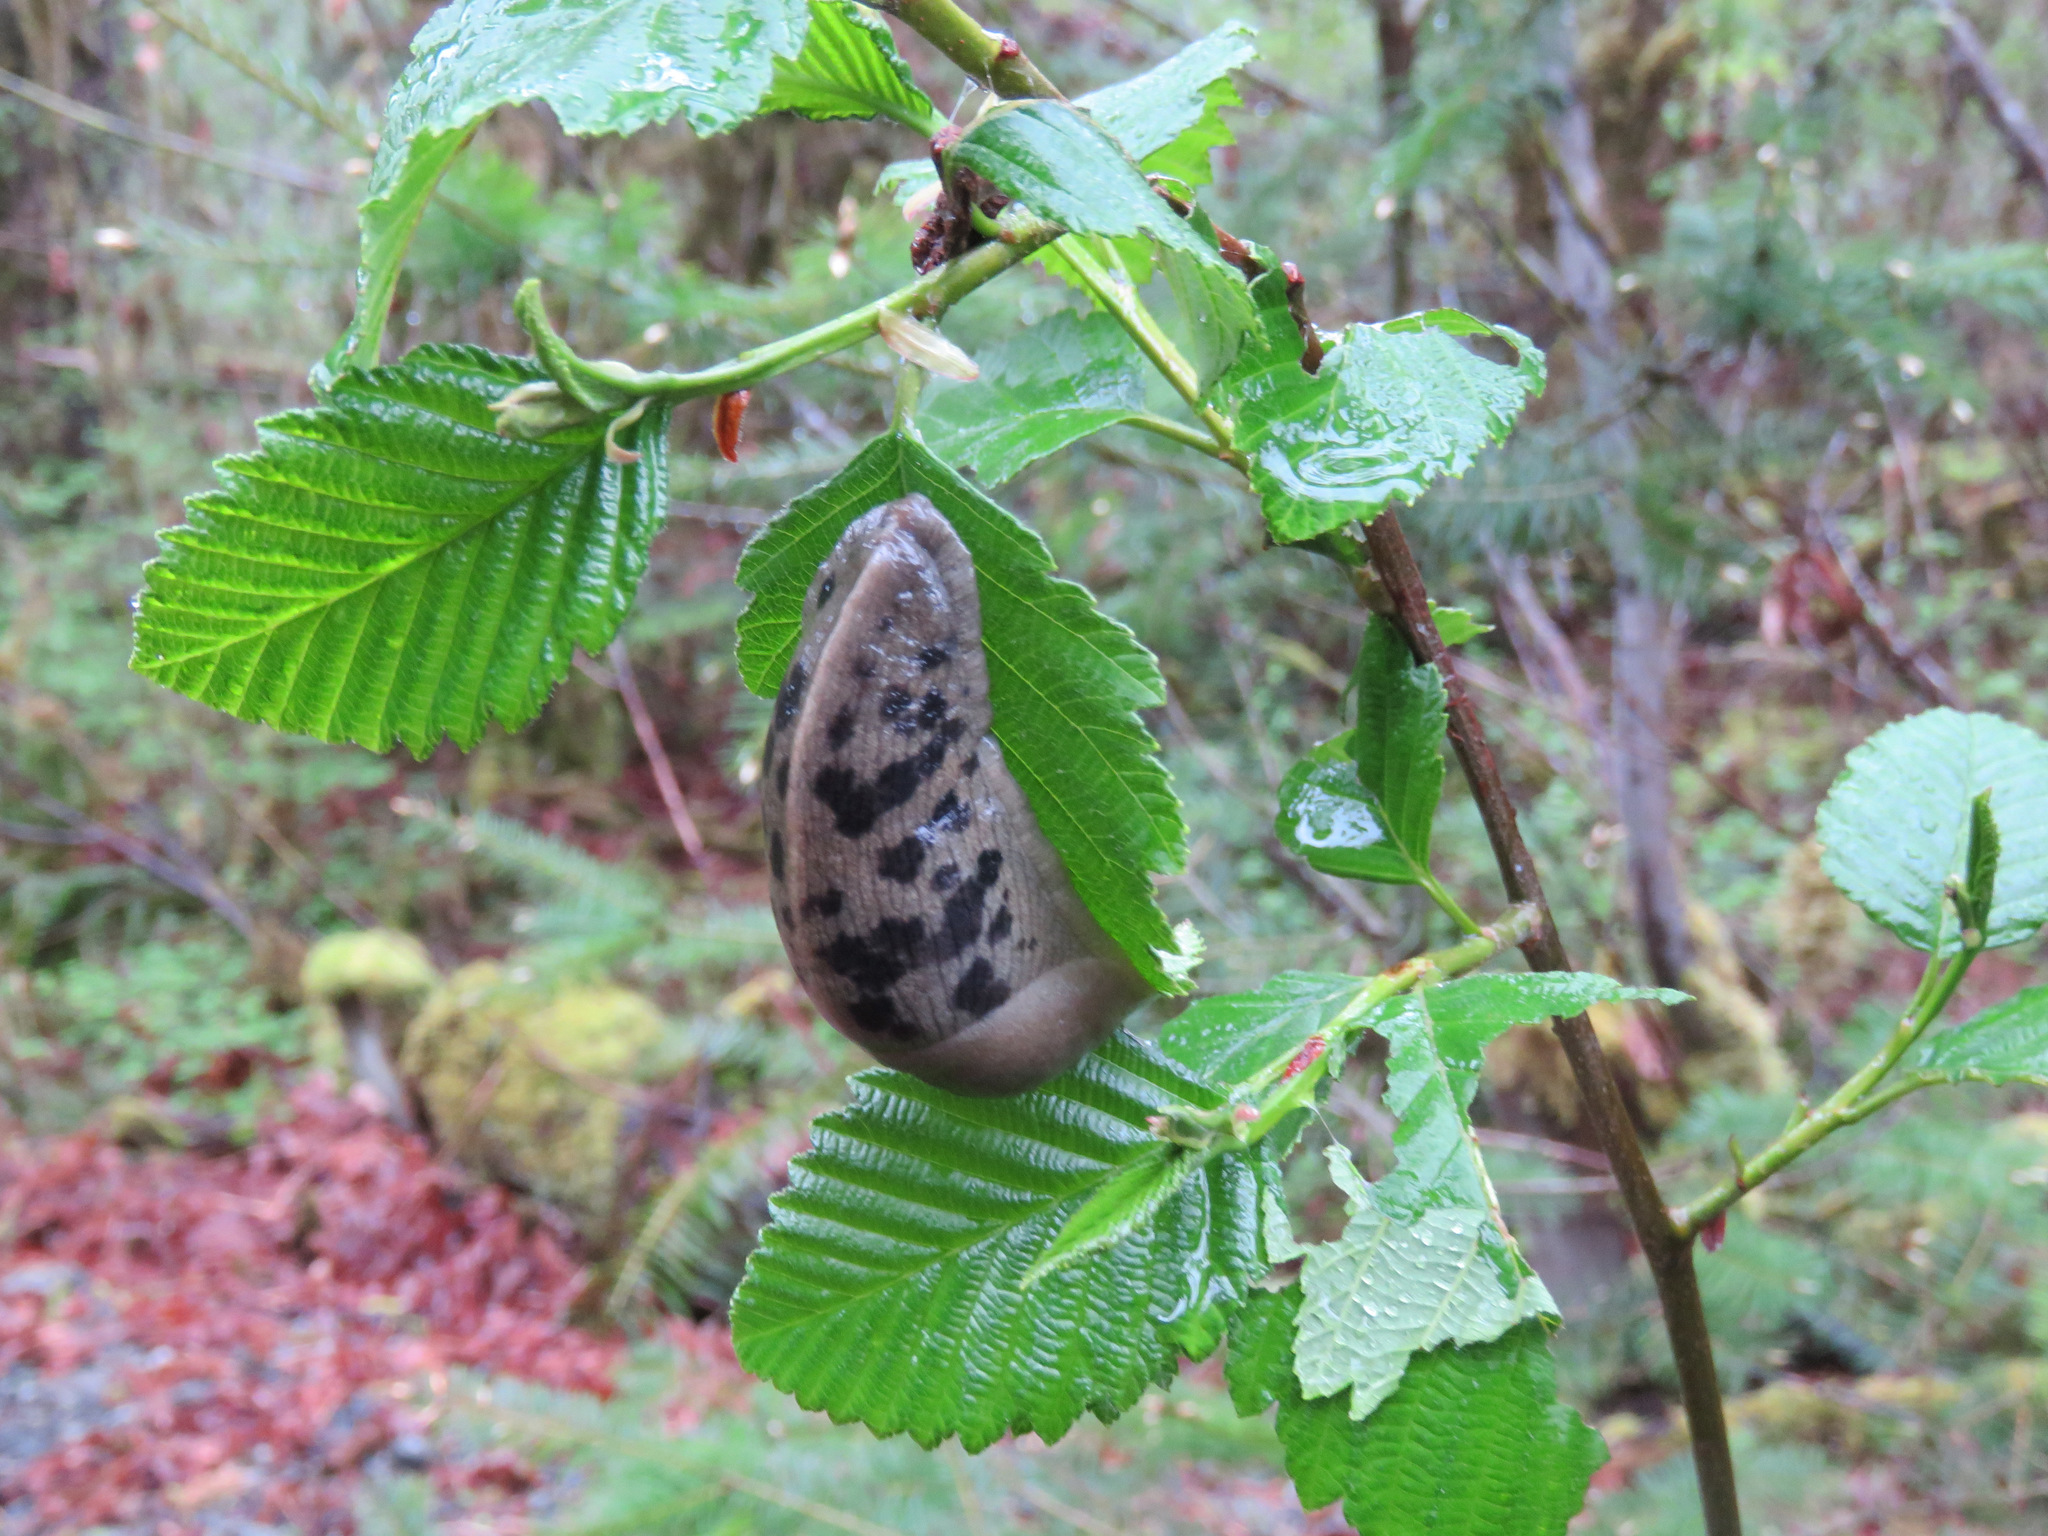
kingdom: Animalia
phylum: Mollusca
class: Gastropoda
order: Stylommatophora
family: Ariolimacidae
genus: Ariolimax
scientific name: Ariolimax columbianus
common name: Pacific banana slug
